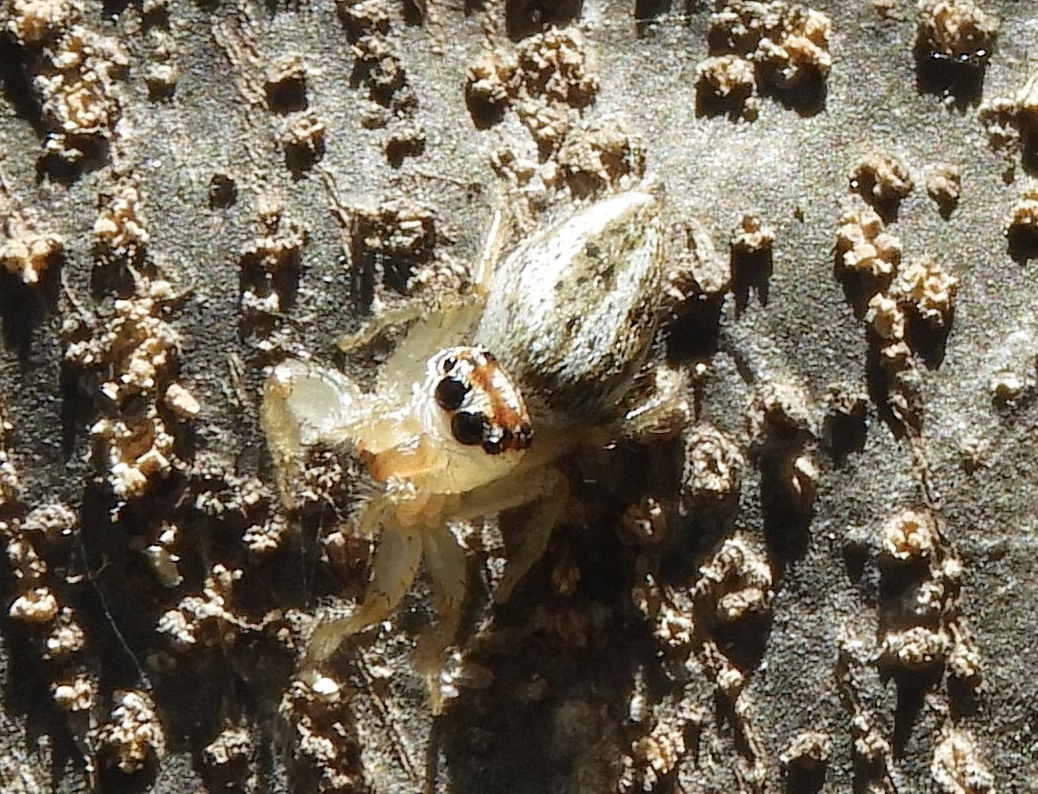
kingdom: Animalia
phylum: Arthropoda
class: Arachnida
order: Araneae
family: Salticidae
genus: Colonus
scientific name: Colonus
